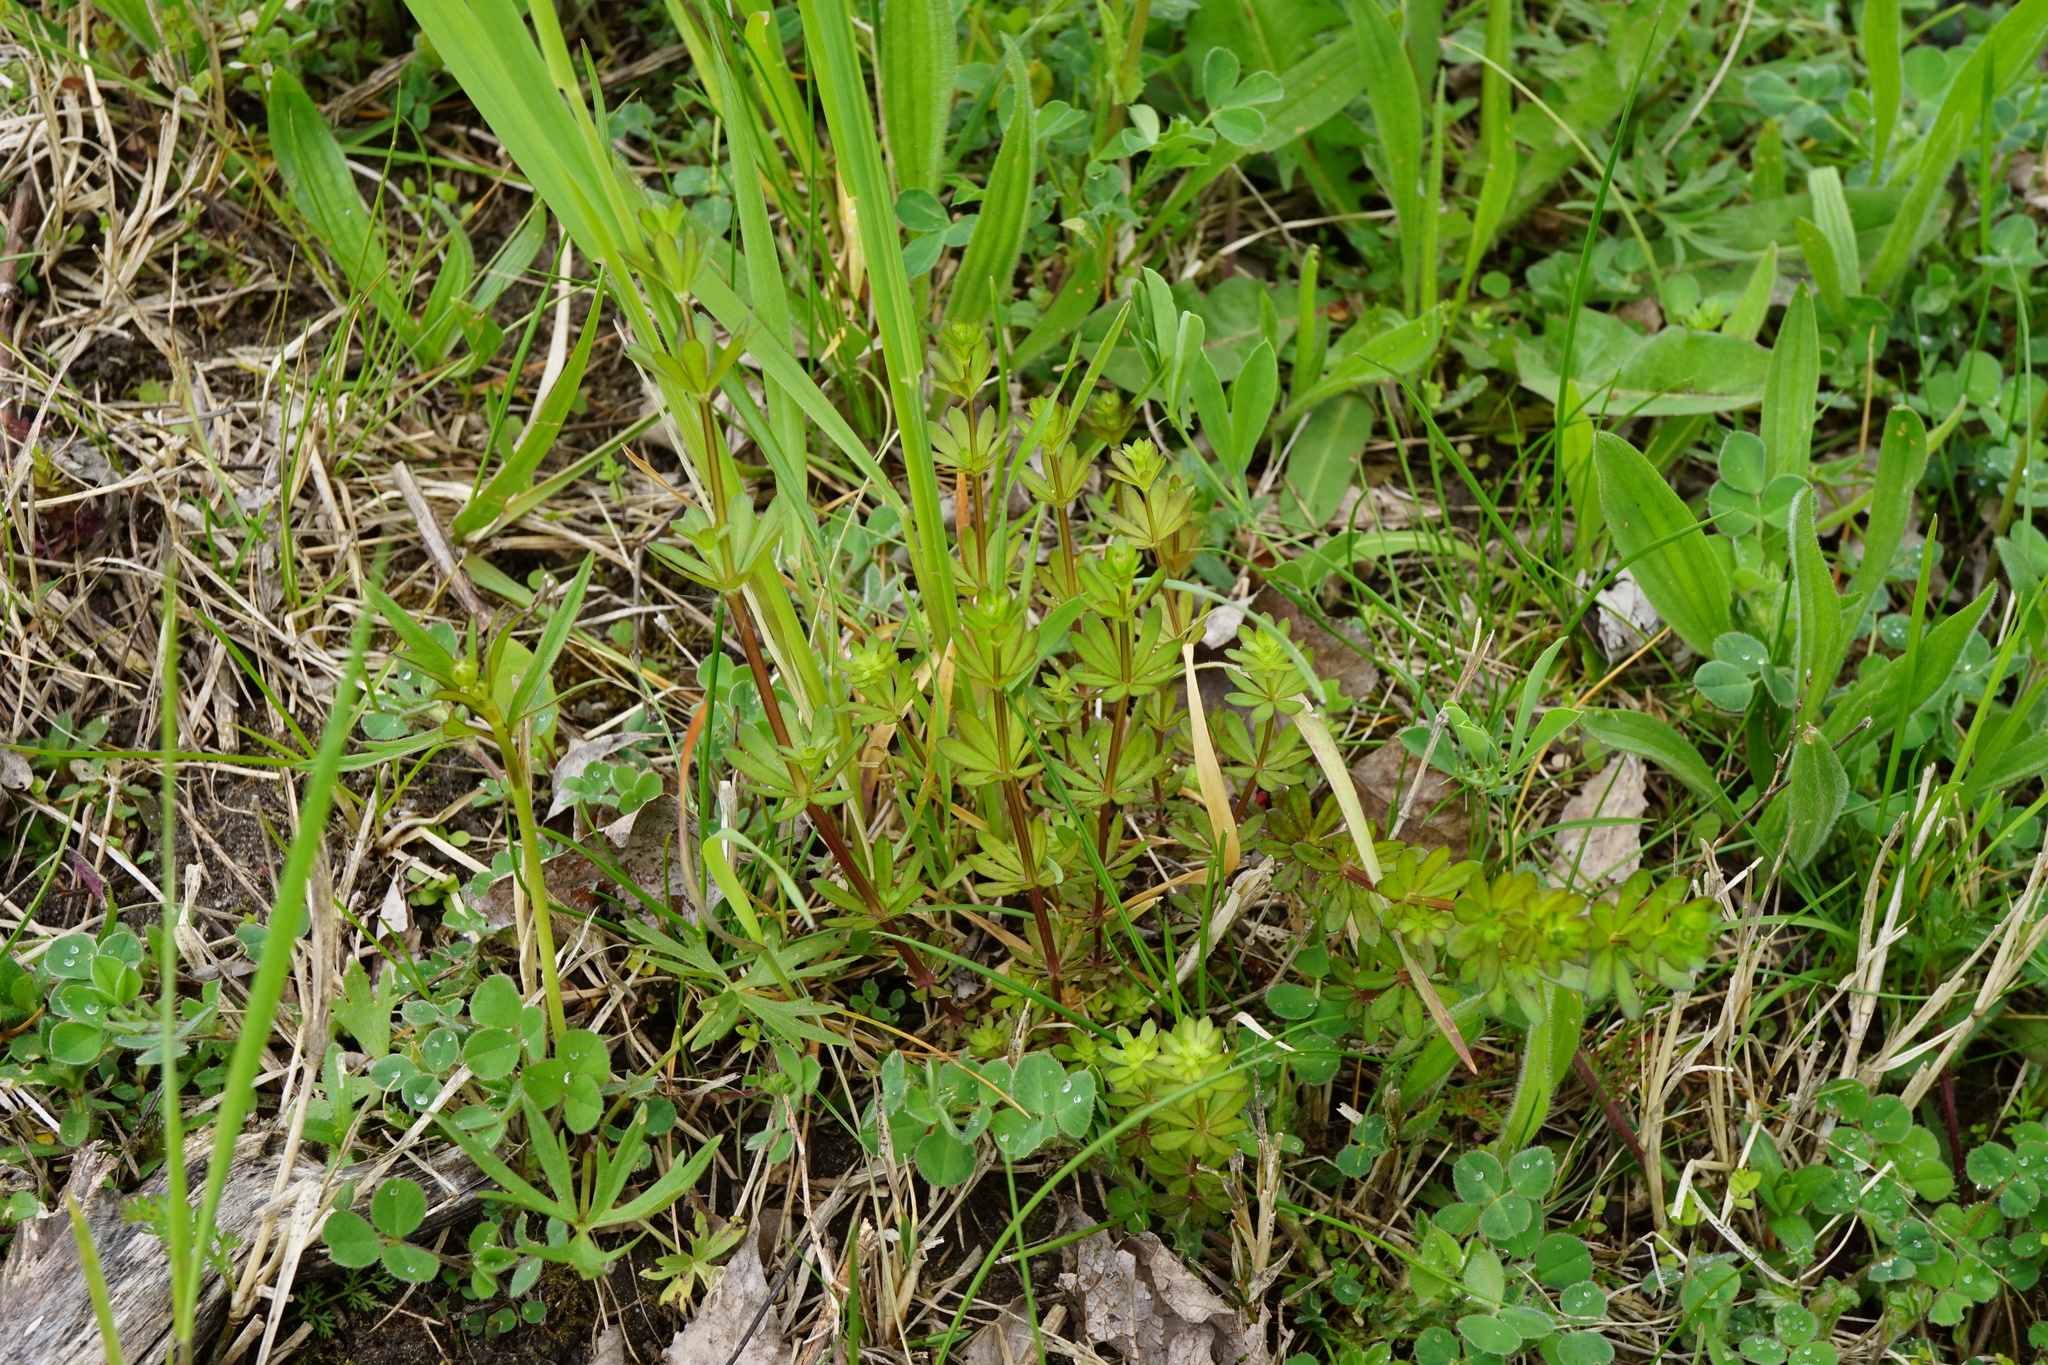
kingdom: Plantae
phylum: Tracheophyta
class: Magnoliopsida
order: Gentianales
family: Rubiaceae
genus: Galium
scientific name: Galium mollugo
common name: Hedge bedstraw
